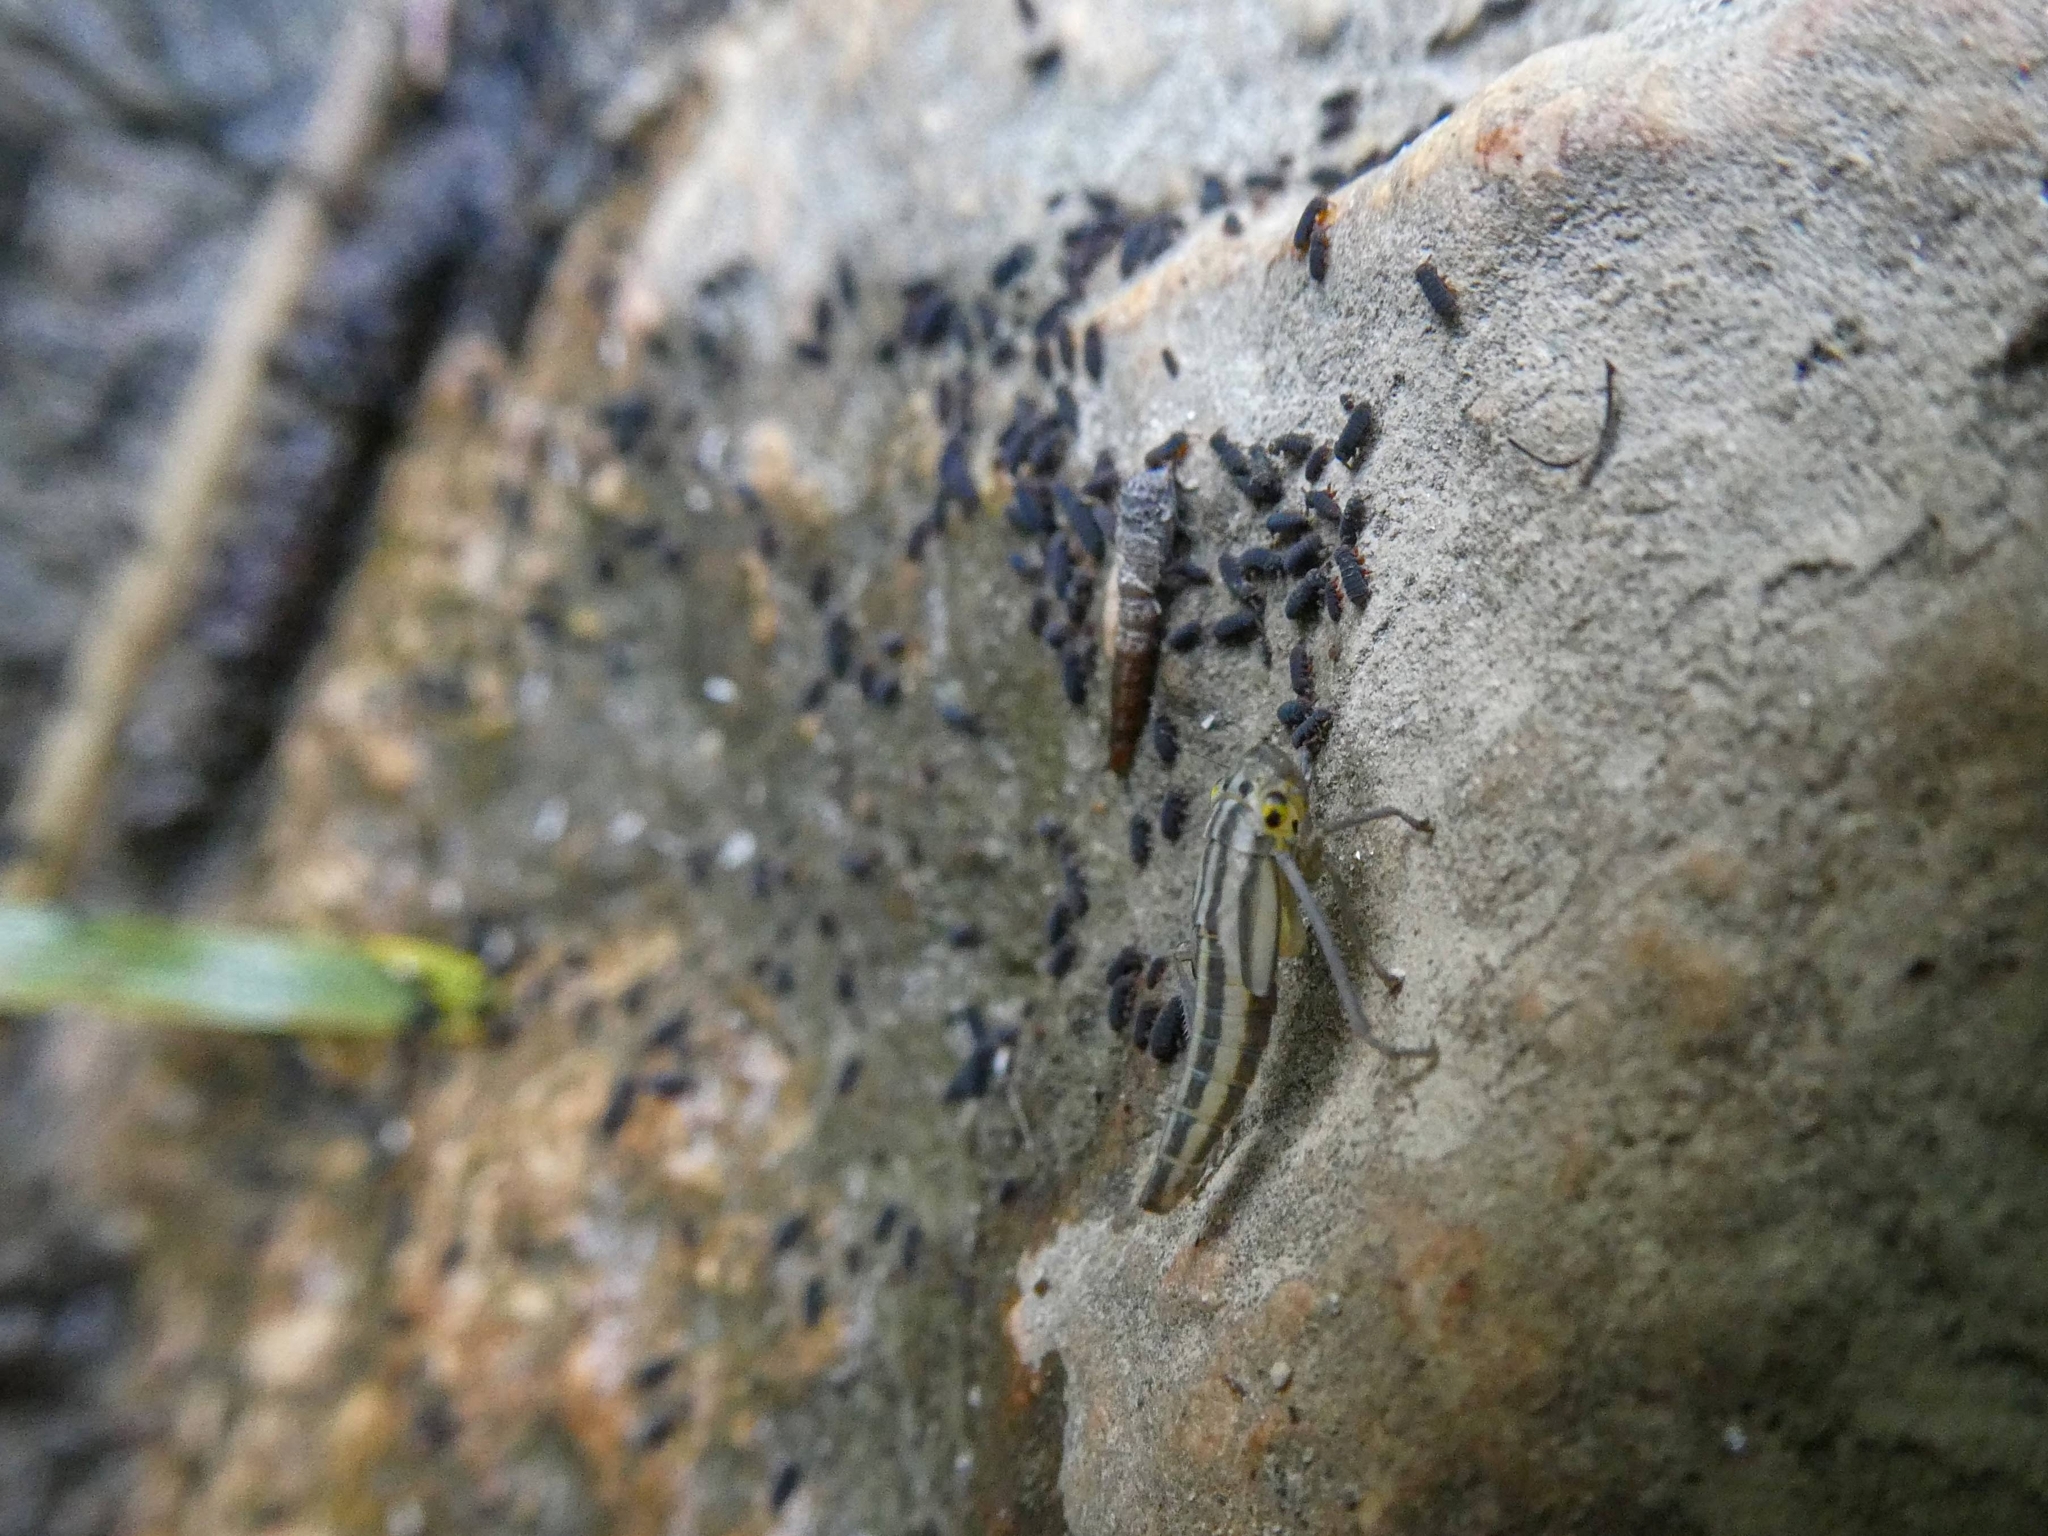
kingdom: Animalia
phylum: Arthropoda
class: Insecta
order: Hemiptera
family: Cicadellidae
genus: Cicadella
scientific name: Cicadella viridis
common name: Leafhopper
